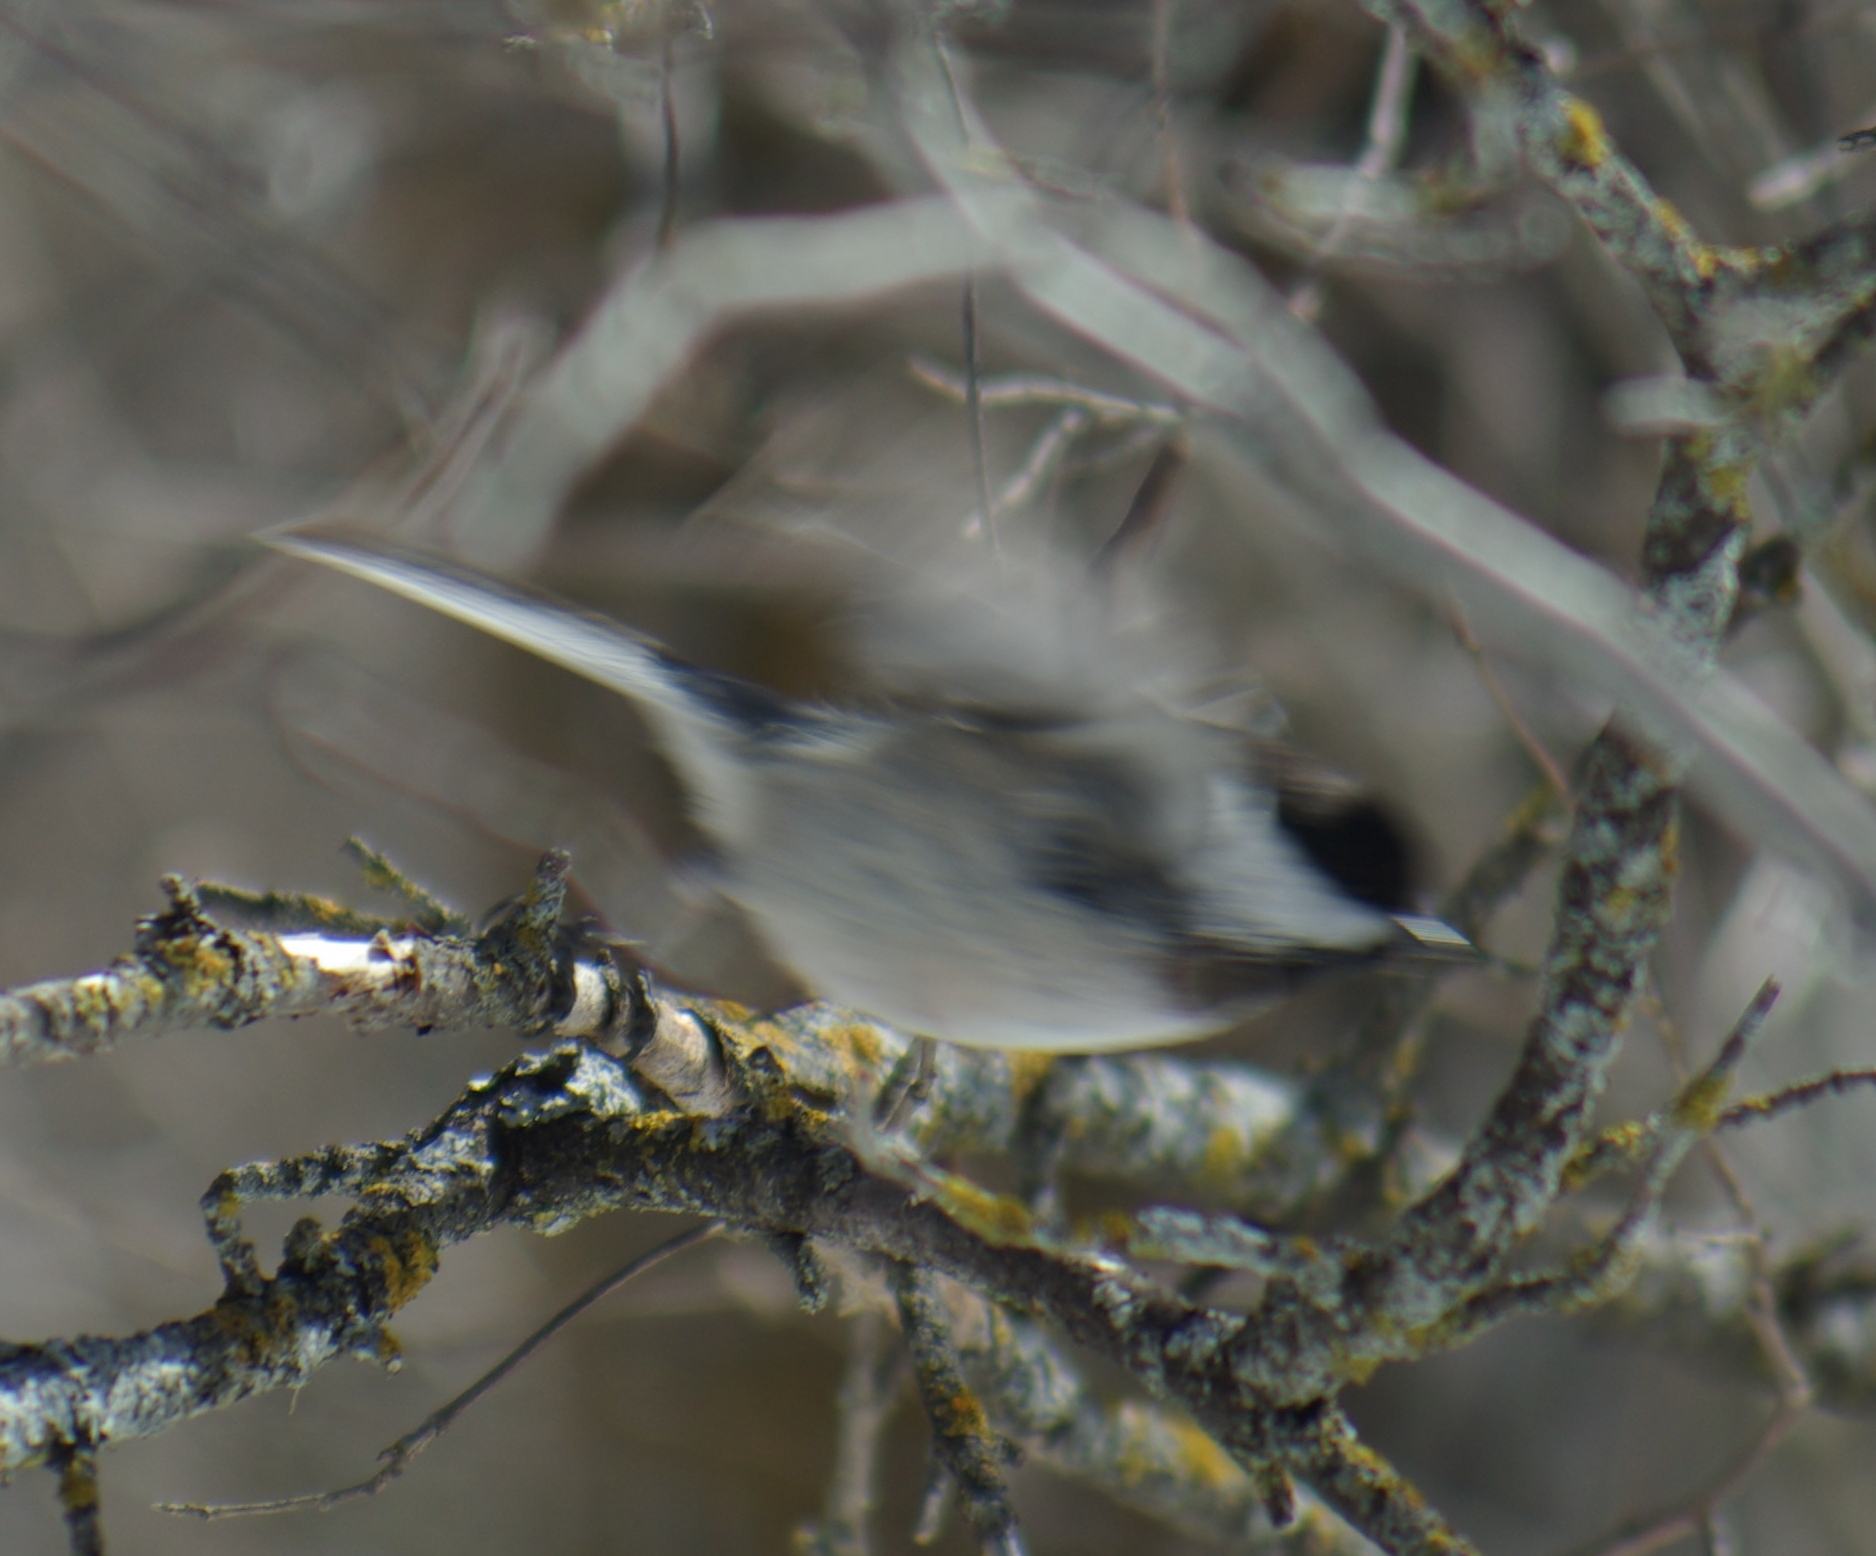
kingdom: Animalia
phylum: Chordata
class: Aves
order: Passeriformes
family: Paridae
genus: Poecile
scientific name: Poecile atricapillus
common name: Black-capped chickadee
